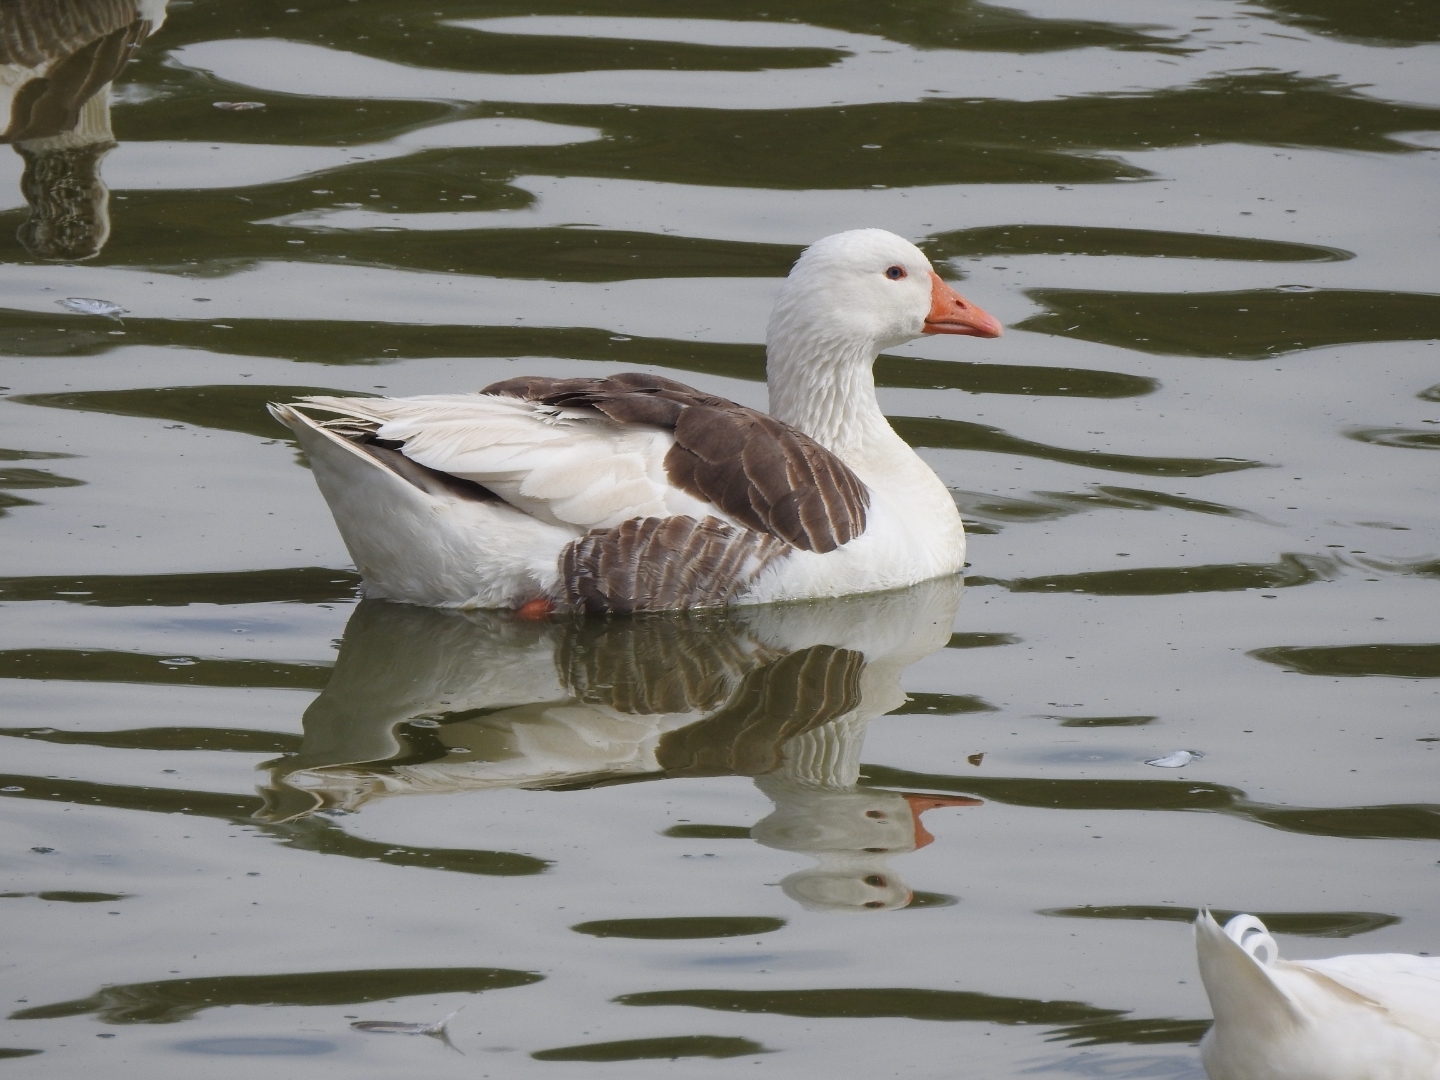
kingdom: Animalia
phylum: Chordata
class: Aves
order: Anseriformes
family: Anatidae
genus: Anser
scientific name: Anser anser
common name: Greylag goose
